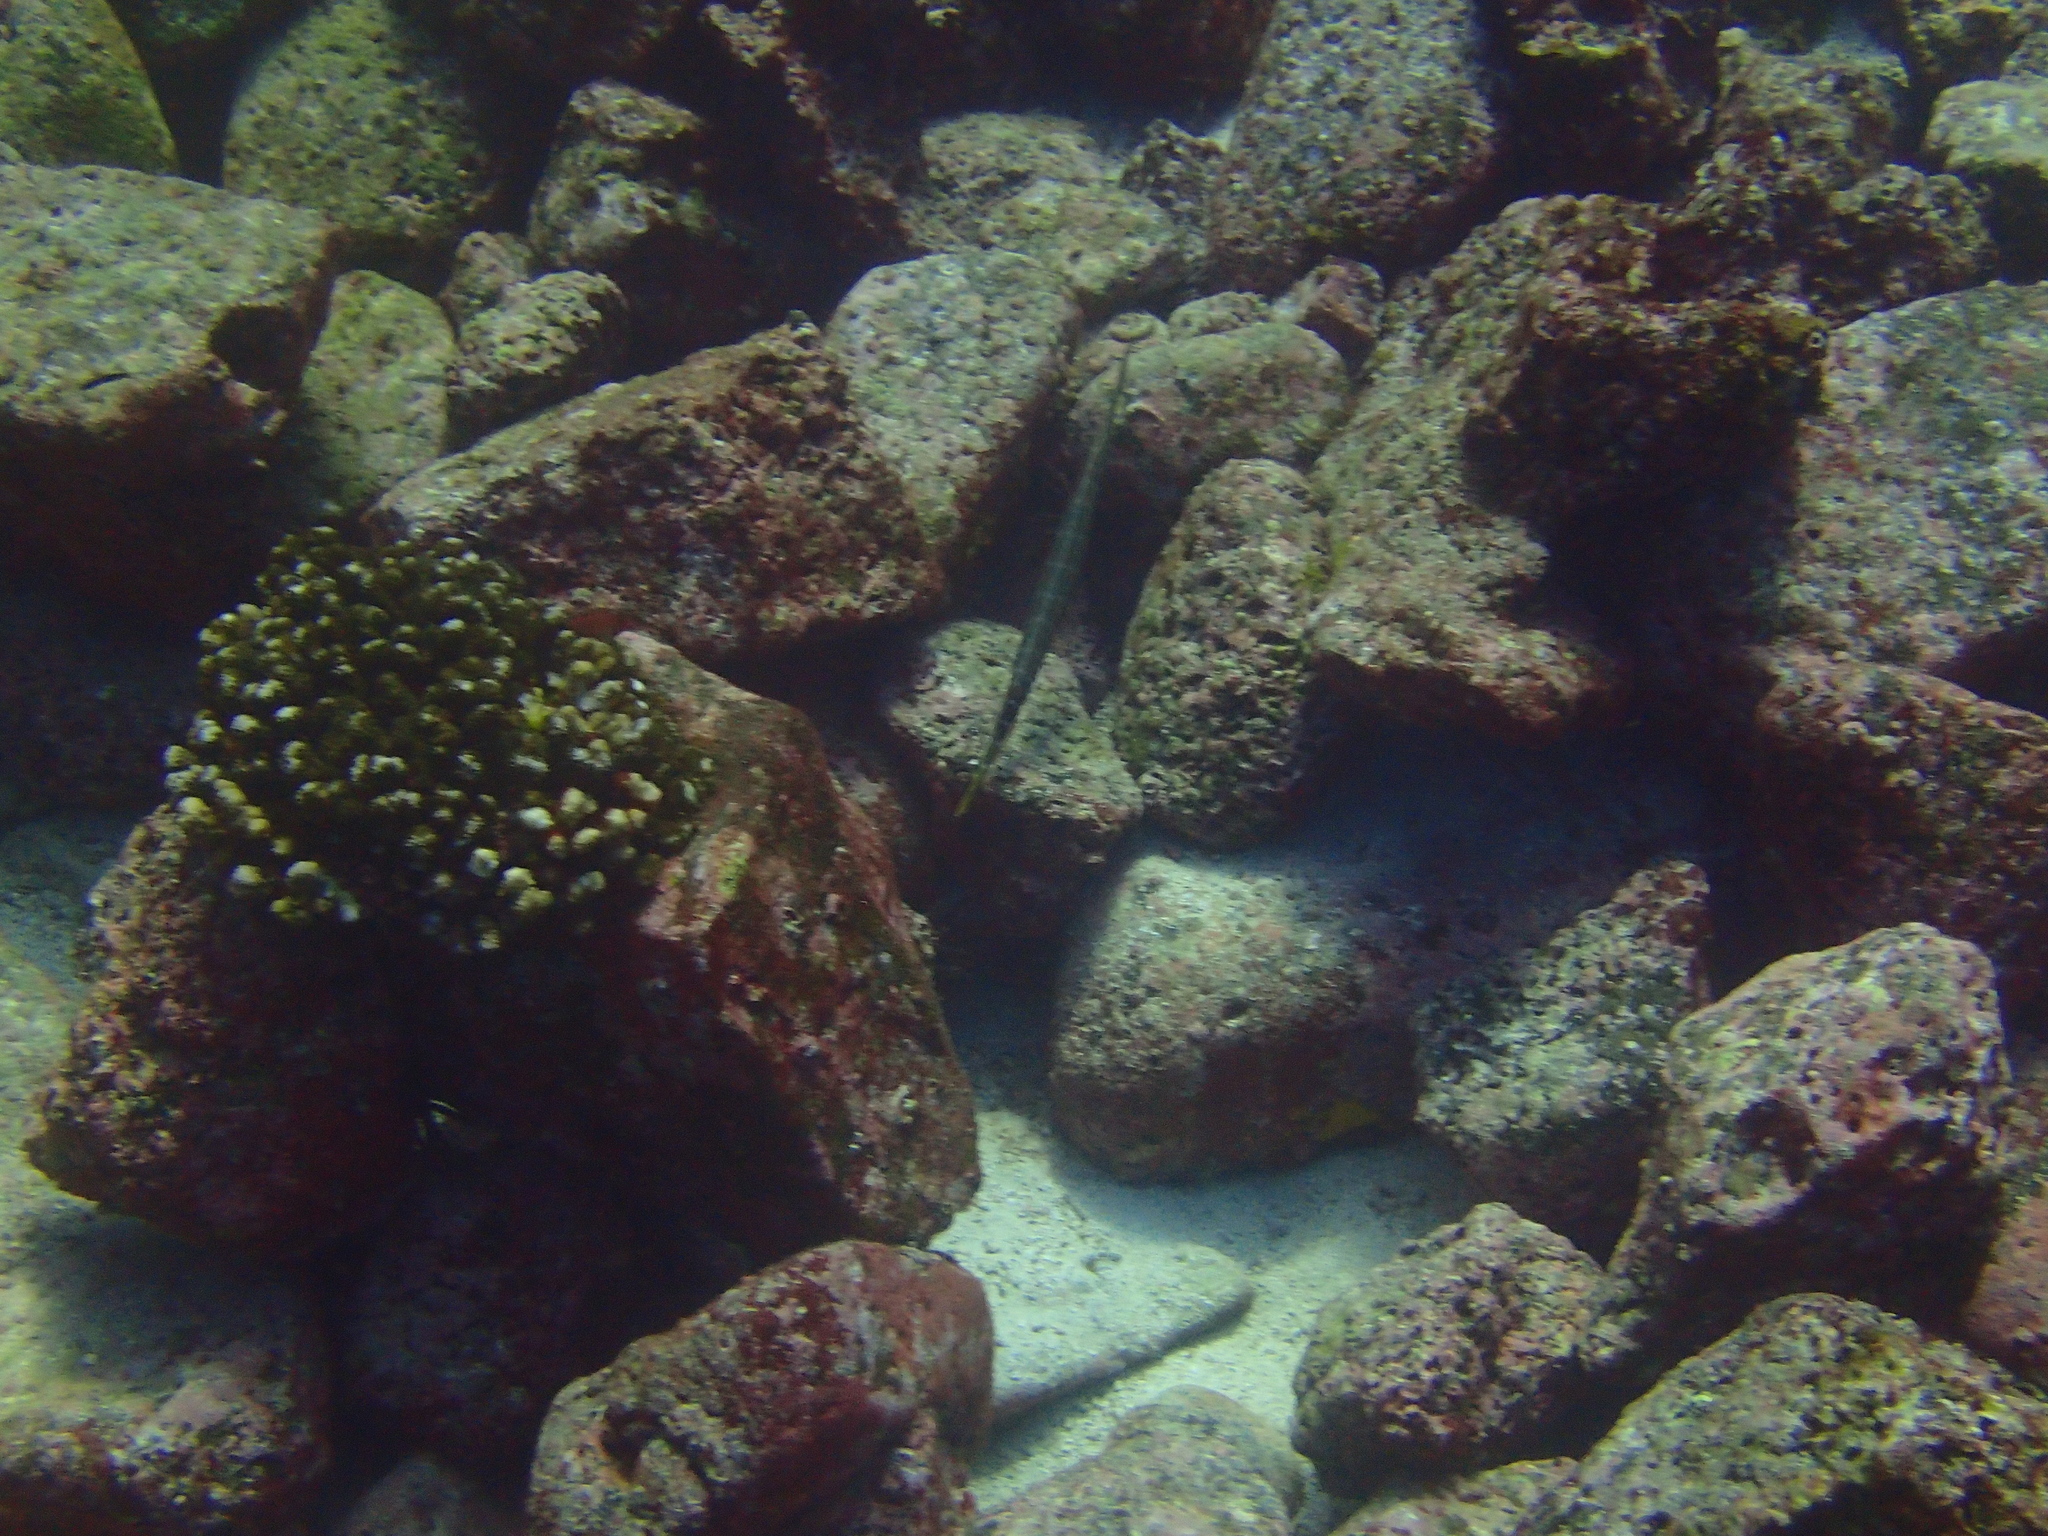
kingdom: Animalia
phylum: Chordata
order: Syngnathiformes
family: Aulostomidae
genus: Aulostomus
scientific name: Aulostomus chinensis
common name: Chinese trumpetfish
